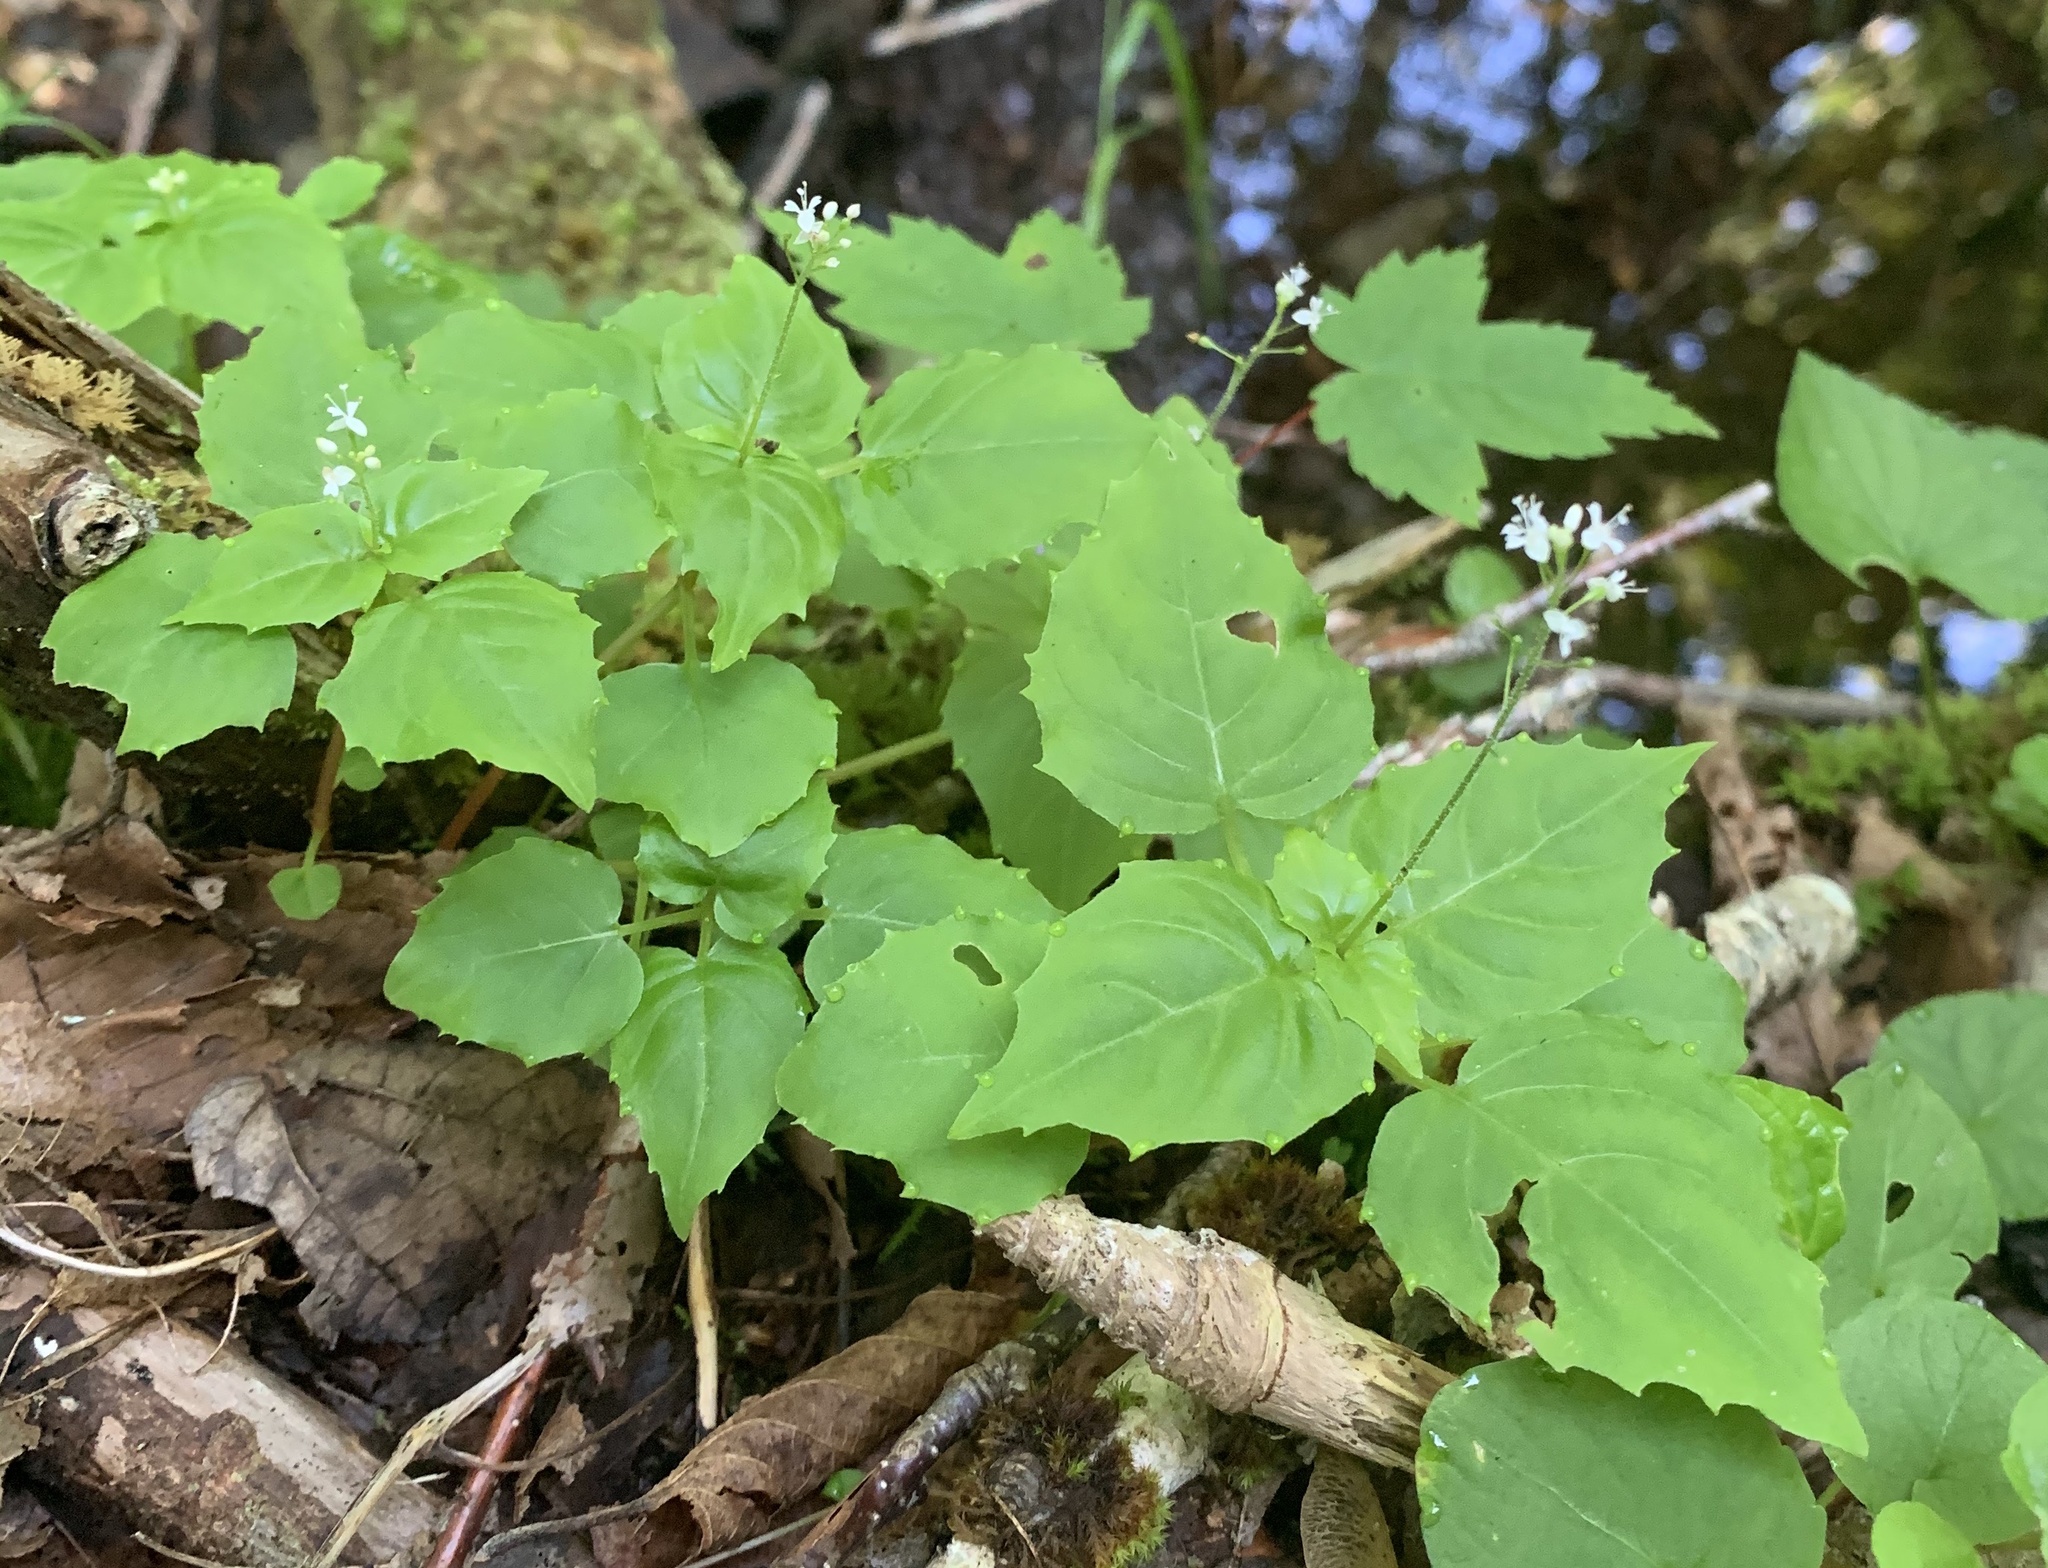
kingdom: Plantae
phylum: Tracheophyta
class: Magnoliopsida
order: Myrtales
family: Onagraceae
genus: Circaea
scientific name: Circaea alpina
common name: Alpine enchanter's-nightshade
